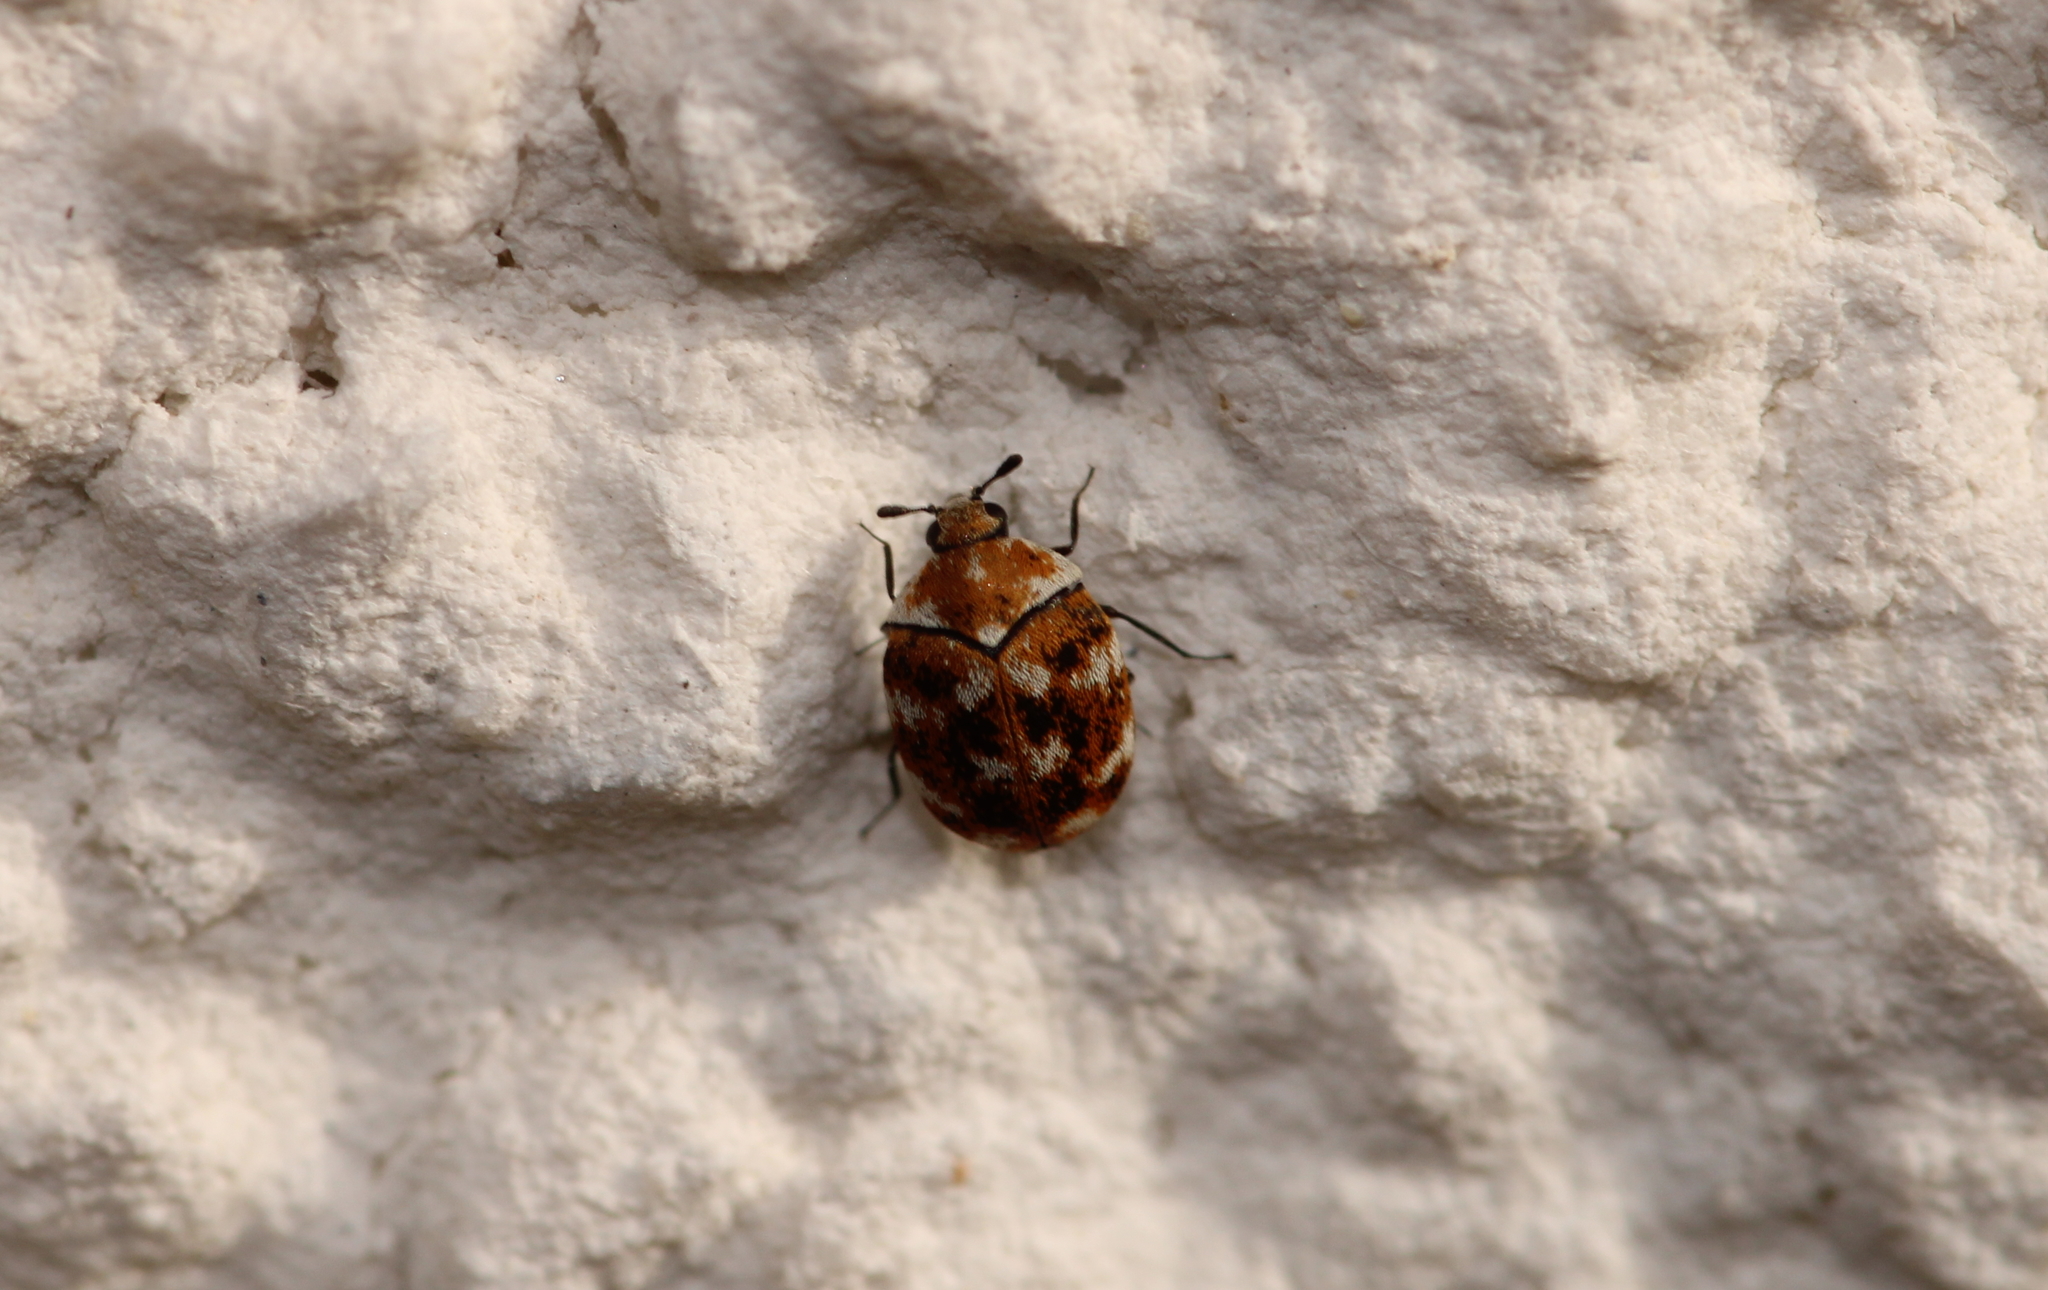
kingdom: Animalia
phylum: Arthropoda
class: Insecta
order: Coleoptera
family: Dermestidae
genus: Anthrenus
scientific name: Anthrenus verbasci
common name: Varied carpet beetle
